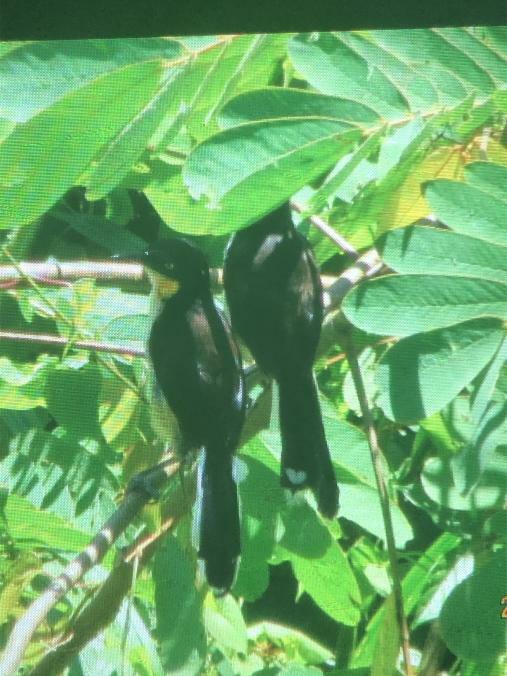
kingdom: Animalia
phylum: Chordata
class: Aves
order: Passeriformes
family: Donacobiidae
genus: Donacobius
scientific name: Donacobius atricapilla
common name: Black-capped donacobius
